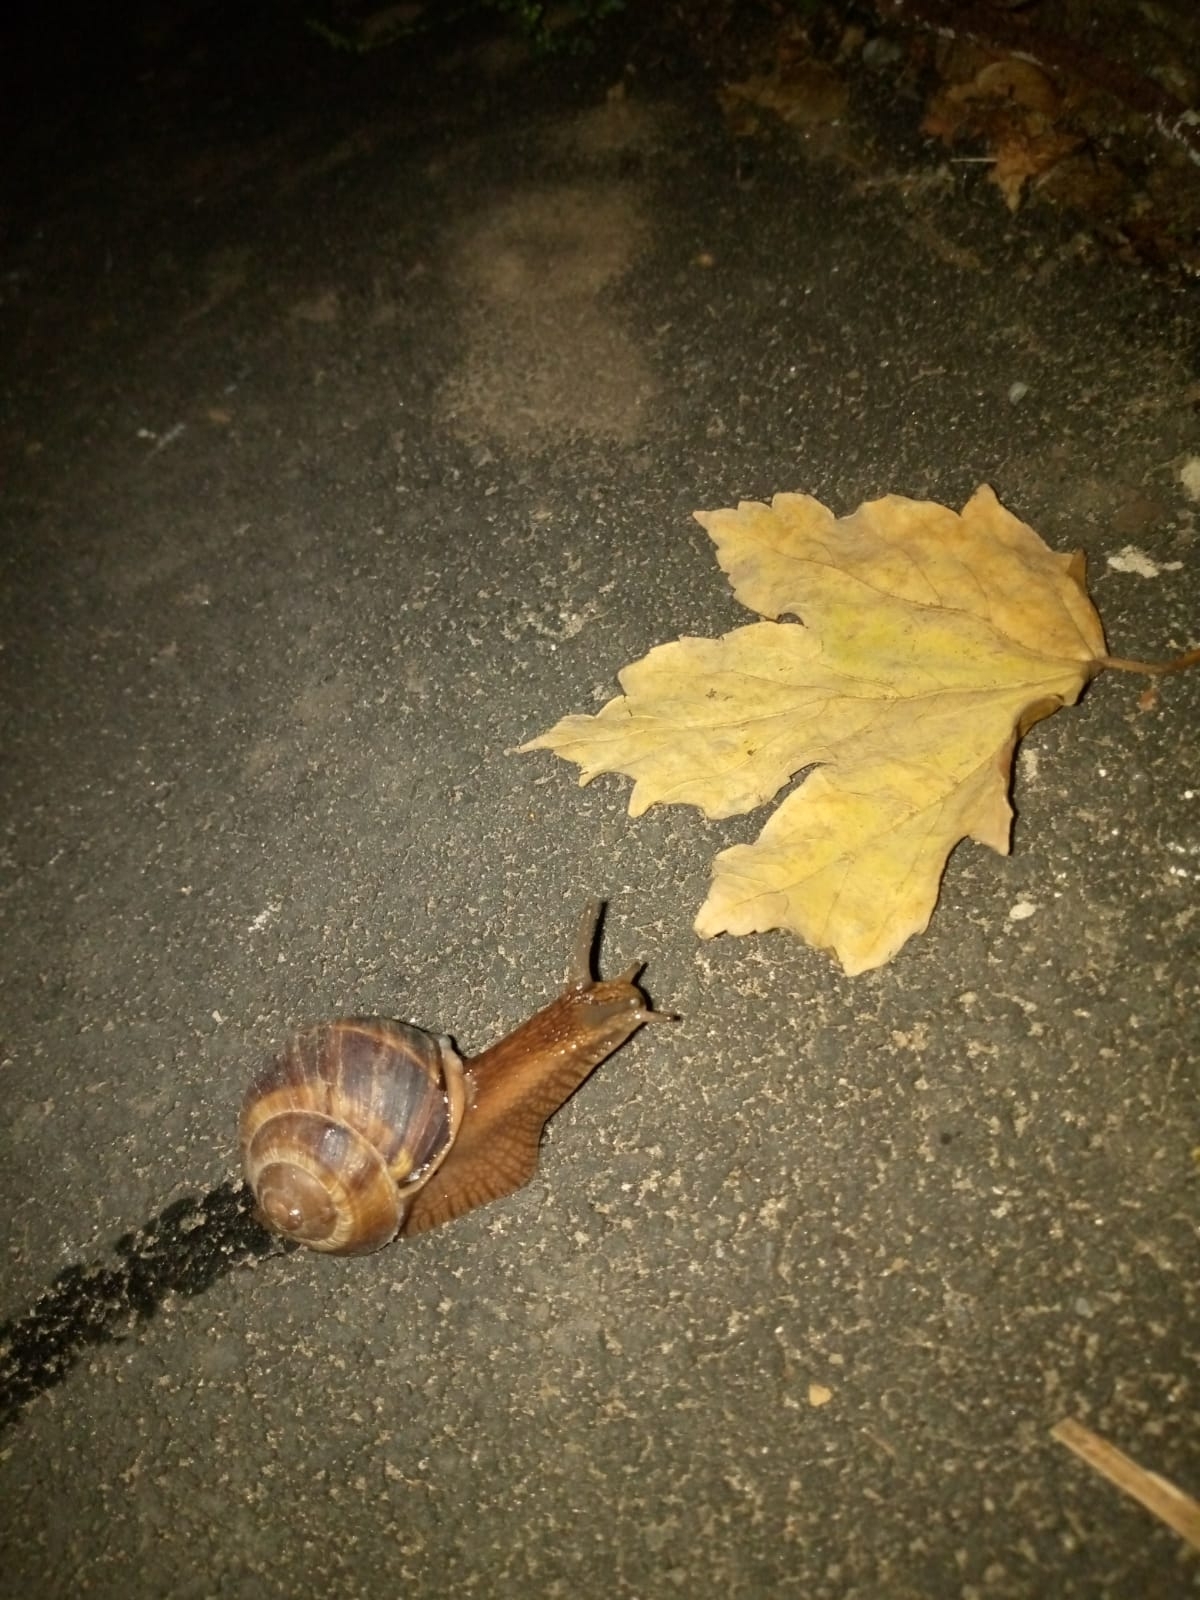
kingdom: Animalia
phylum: Mollusca
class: Gastropoda
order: Stylommatophora
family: Helicidae
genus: Helix
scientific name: Helix lucorum
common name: Turkish snail
